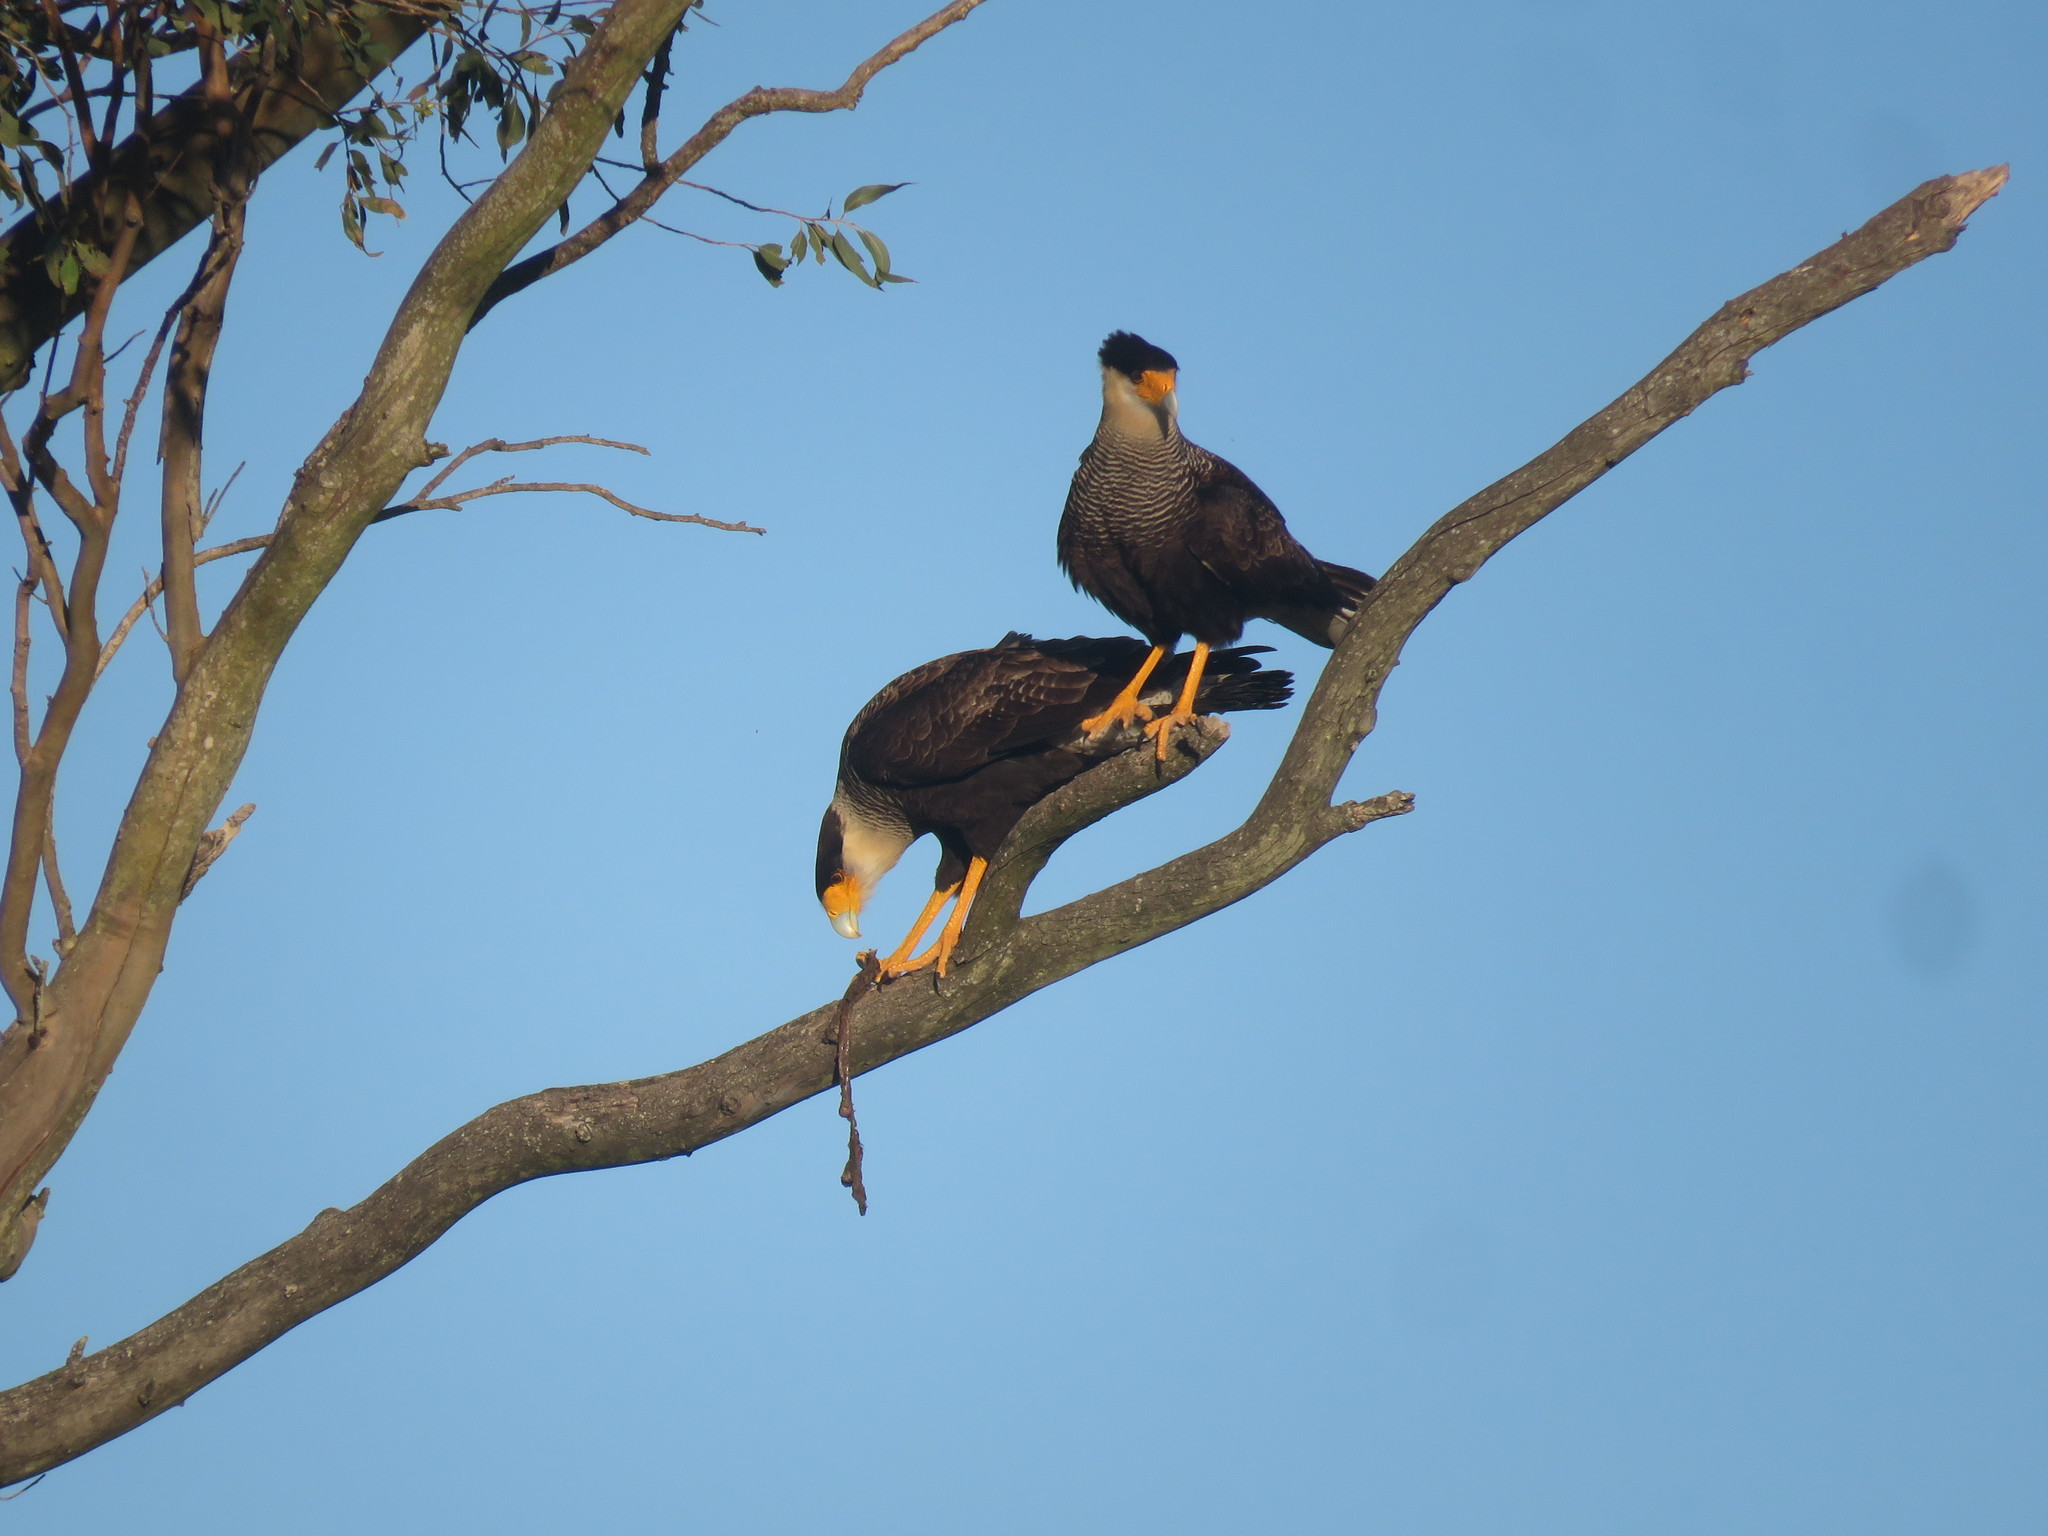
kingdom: Animalia
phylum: Chordata
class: Aves
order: Falconiformes
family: Falconidae
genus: Caracara
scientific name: Caracara plancus
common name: Southern caracara
